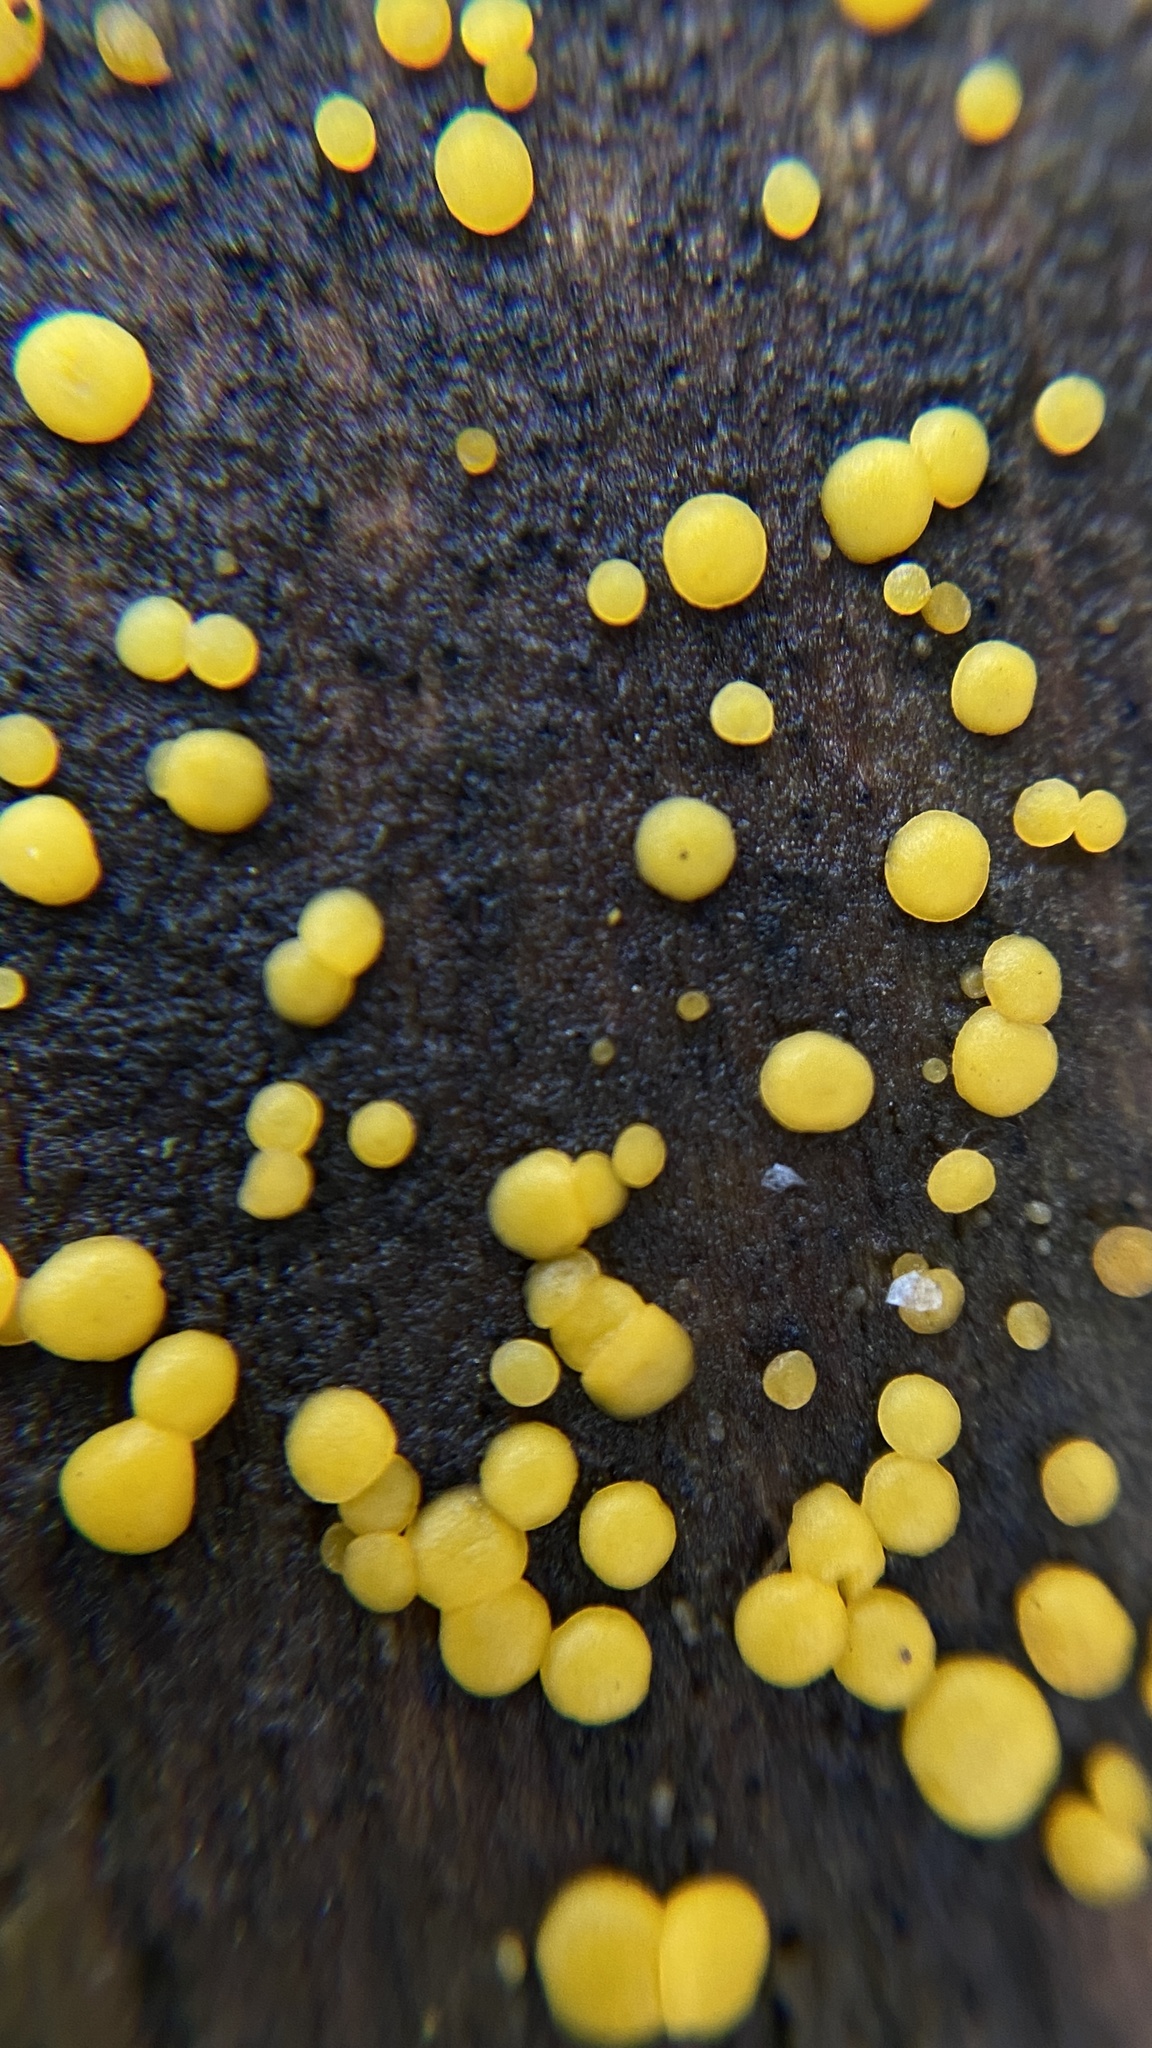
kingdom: Fungi
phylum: Ascomycota
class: Leotiomycetes
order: Helotiales
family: Pezizellaceae
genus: Calycina
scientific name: Calycina citrina
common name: Yellow fairy cups
